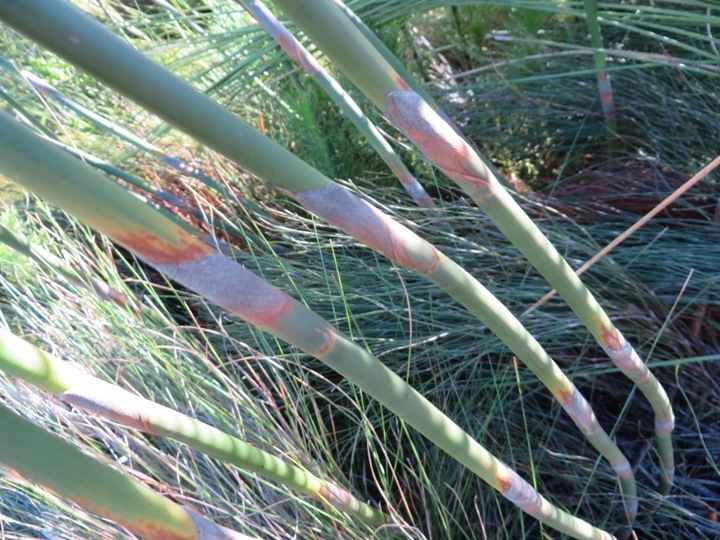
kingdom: Plantae
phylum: Tracheophyta
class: Liliopsida
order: Poales
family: Restionaceae
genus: Cannomois
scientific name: Cannomois virgata
